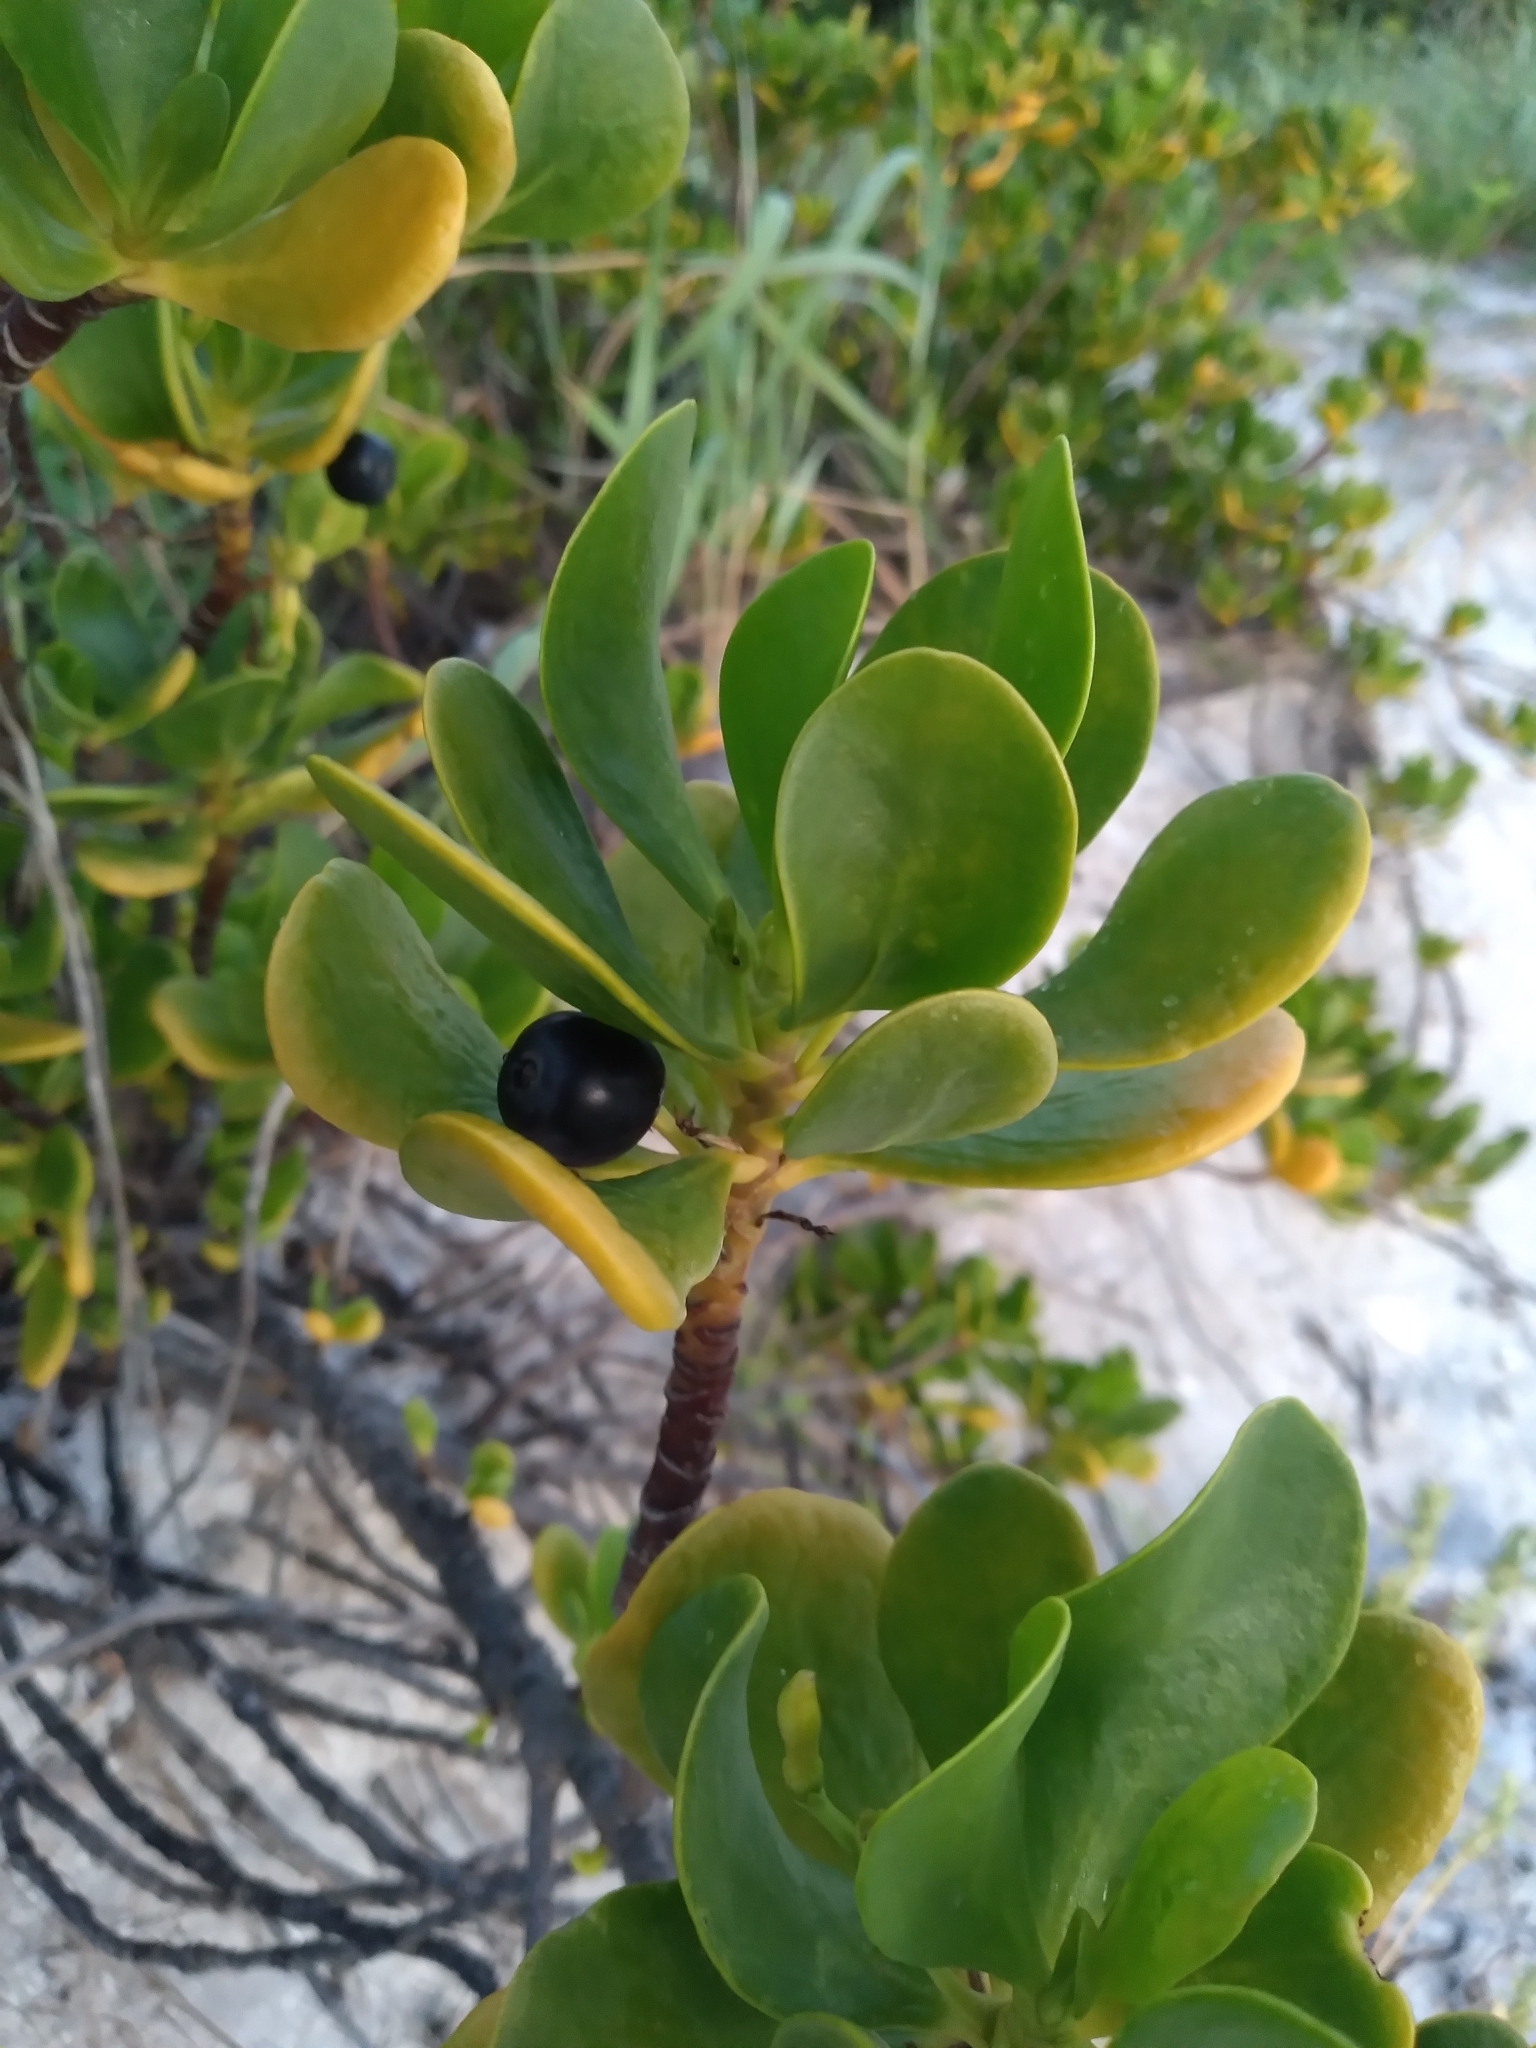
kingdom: Plantae
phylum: Tracheophyta
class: Magnoliopsida
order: Asterales
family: Goodeniaceae
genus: Scaevola
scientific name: Scaevola plumieri
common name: Gull feed
